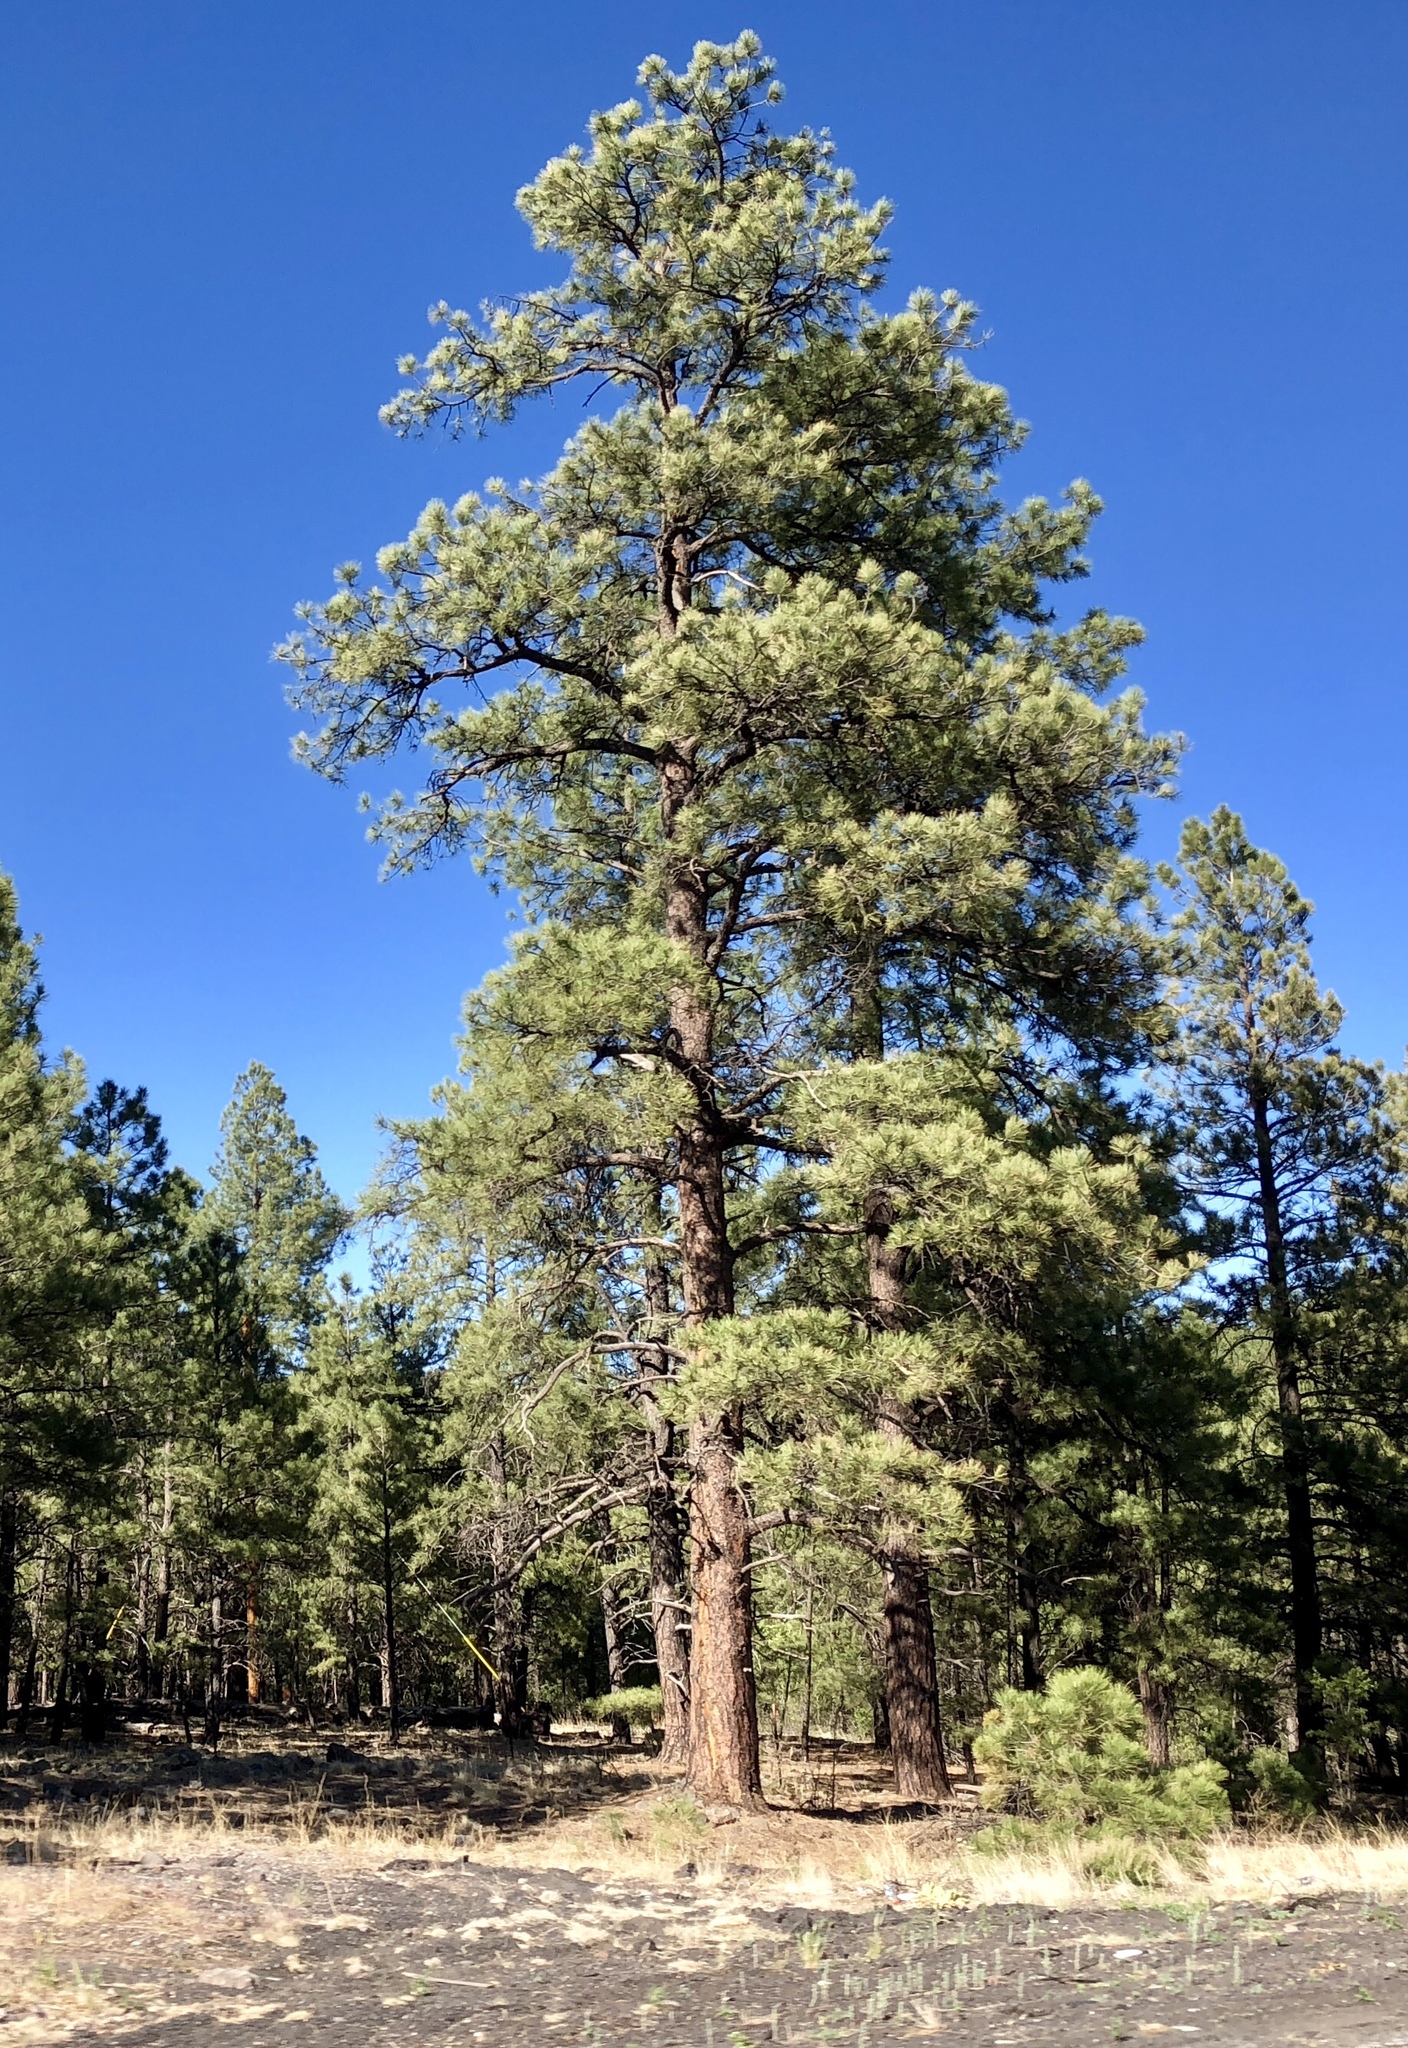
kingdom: Plantae
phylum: Tracheophyta
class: Pinopsida
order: Pinales
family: Pinaceae
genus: Pinus
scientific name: Pinus ponderosa
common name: Western yellow-pine
